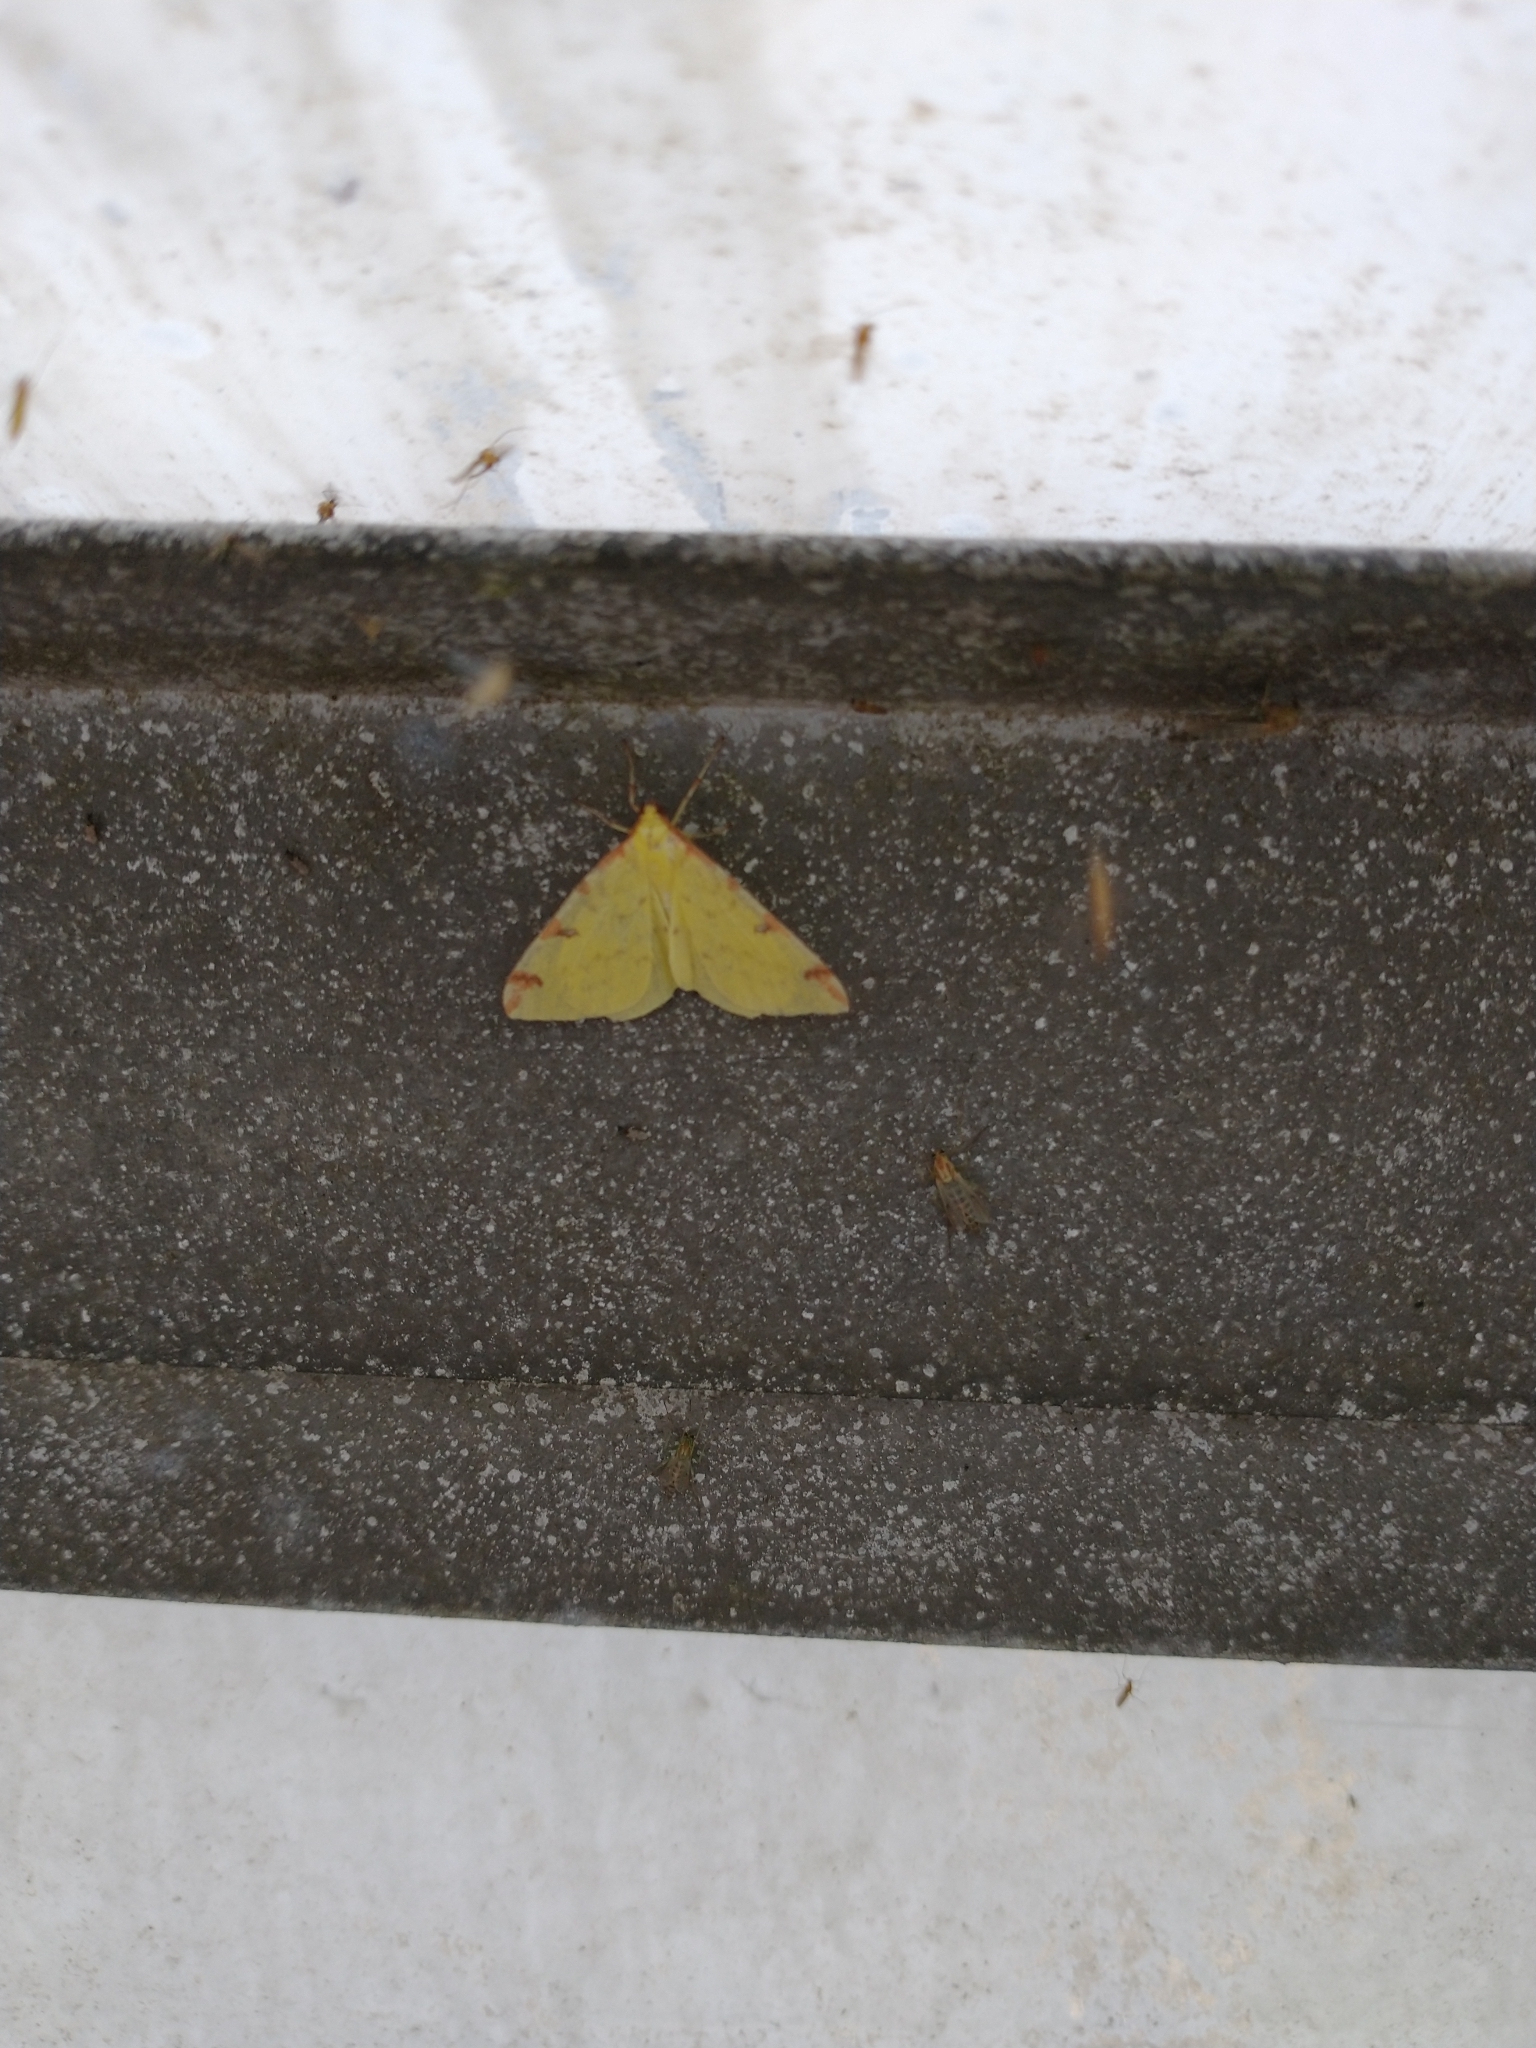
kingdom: Animalia
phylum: Arthropoda
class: Insecta
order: Lepidoptera
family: Geometridae
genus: Opisthograptis
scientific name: Opisthograptis luteolata
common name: Brimstone moth
